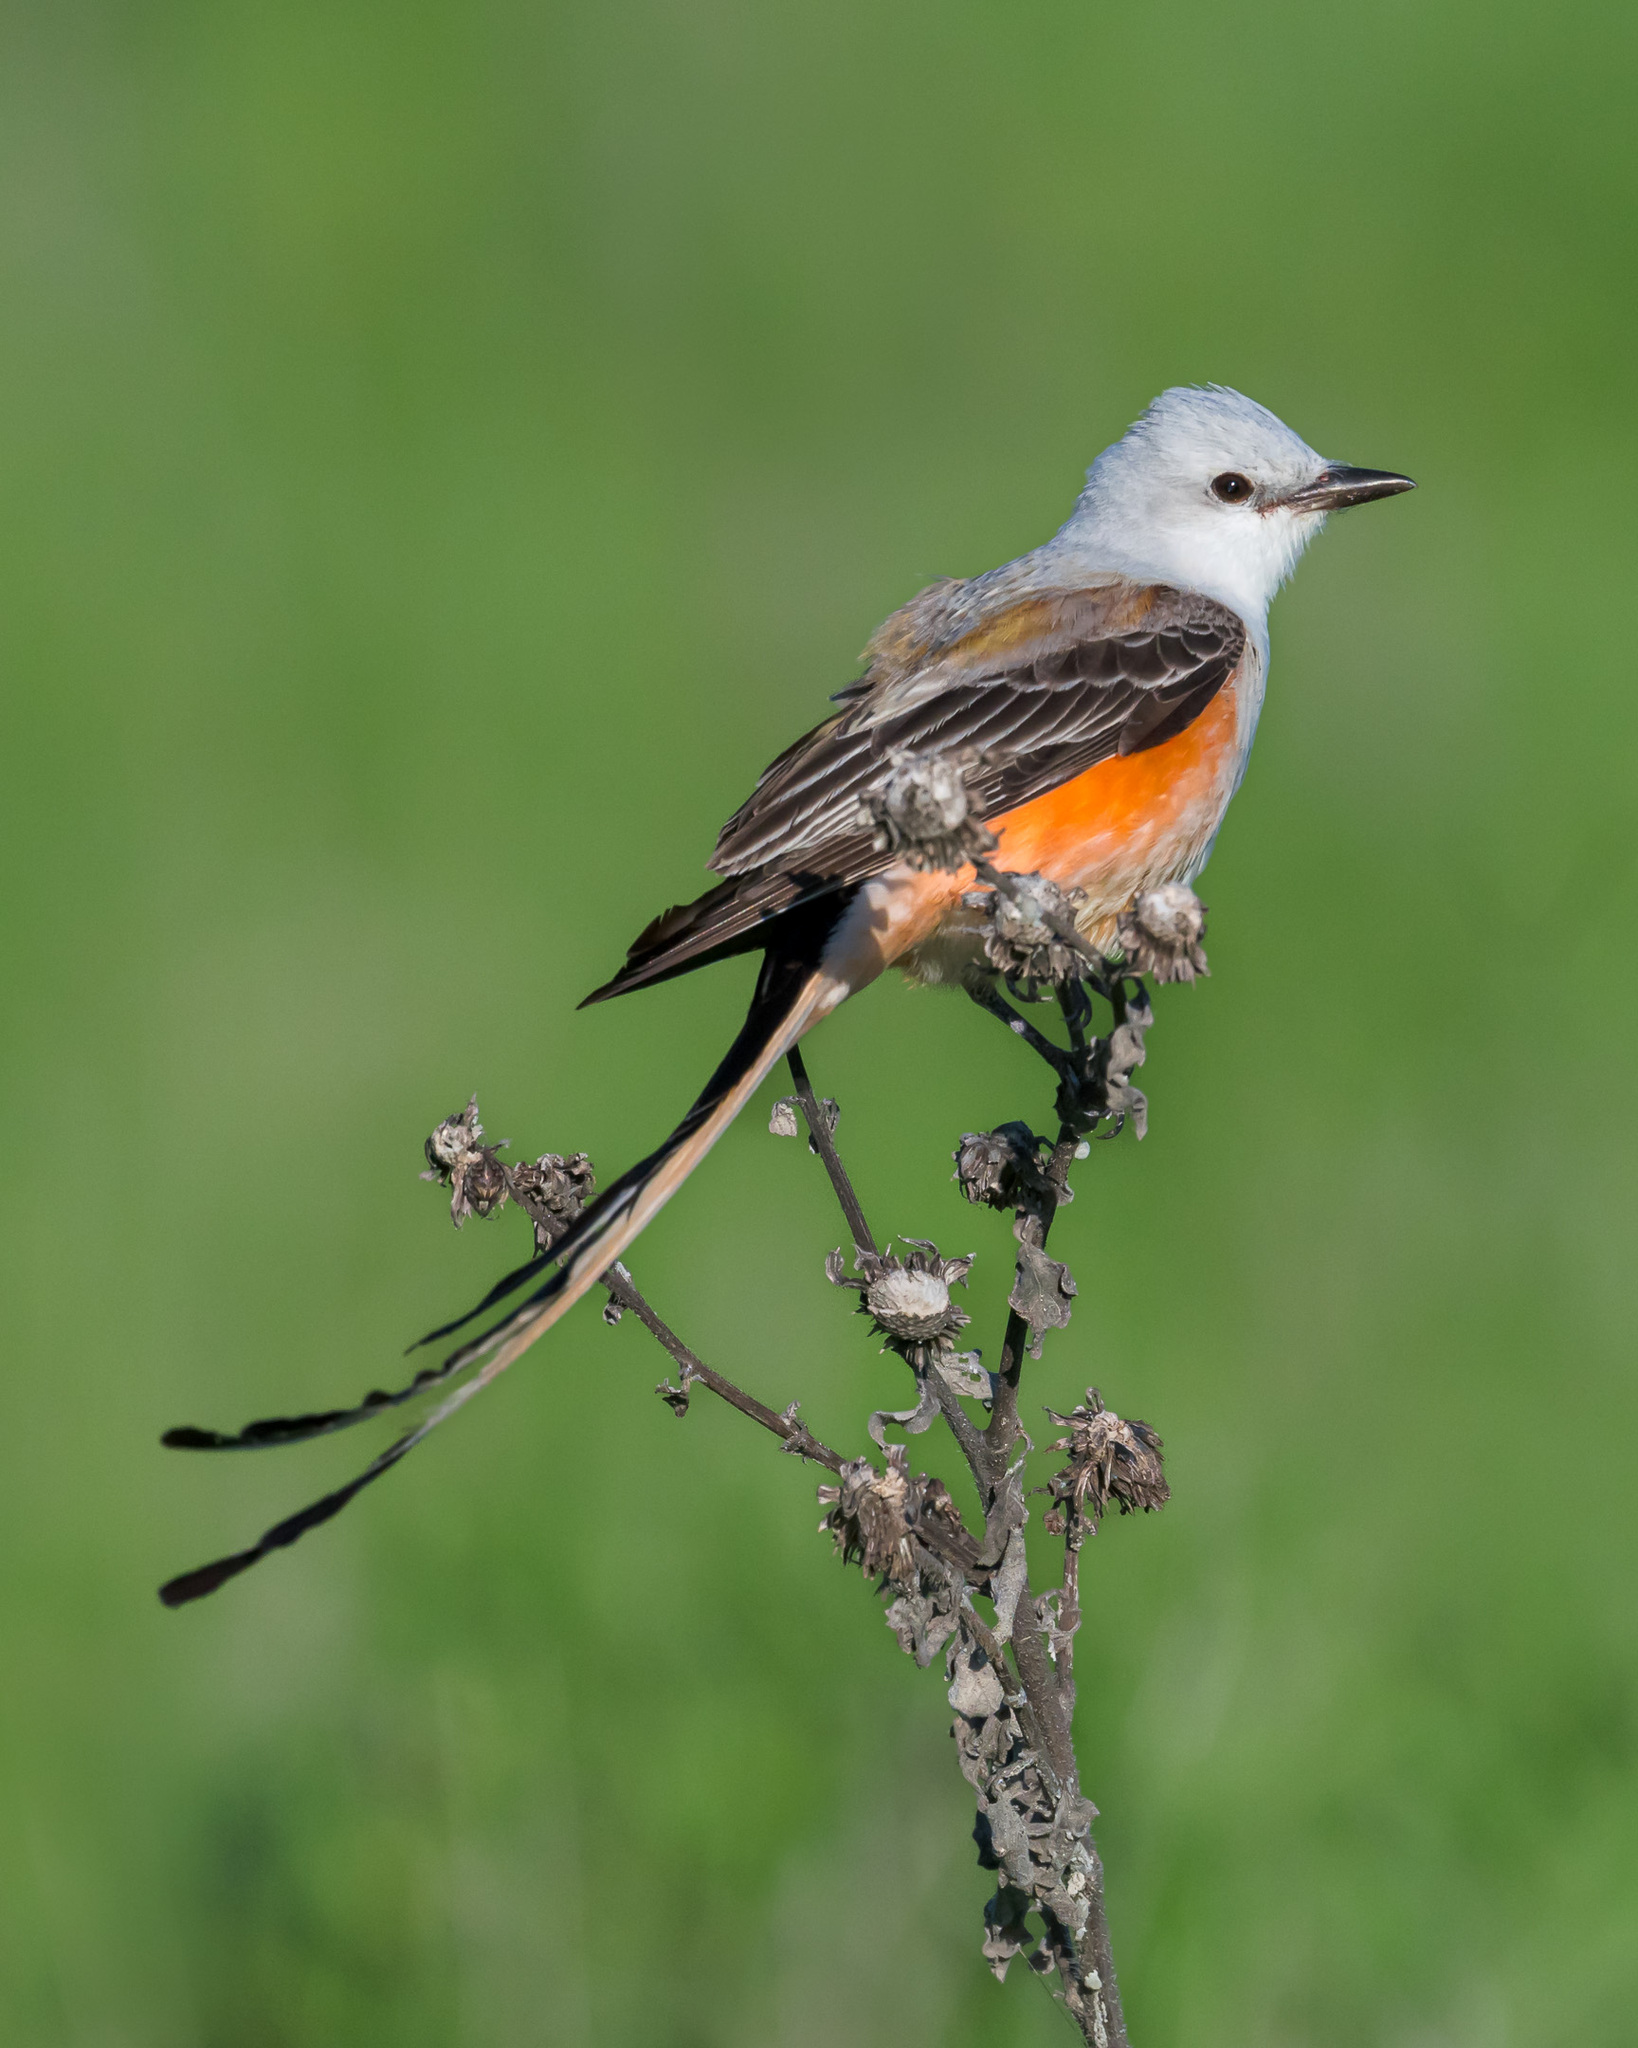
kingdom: Animalia
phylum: Chordata
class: Aves
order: Passeriformes
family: Tyrannidae
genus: Tyrannus
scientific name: Tyrannus forficatus
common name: Scissor-tailed flycatcher
